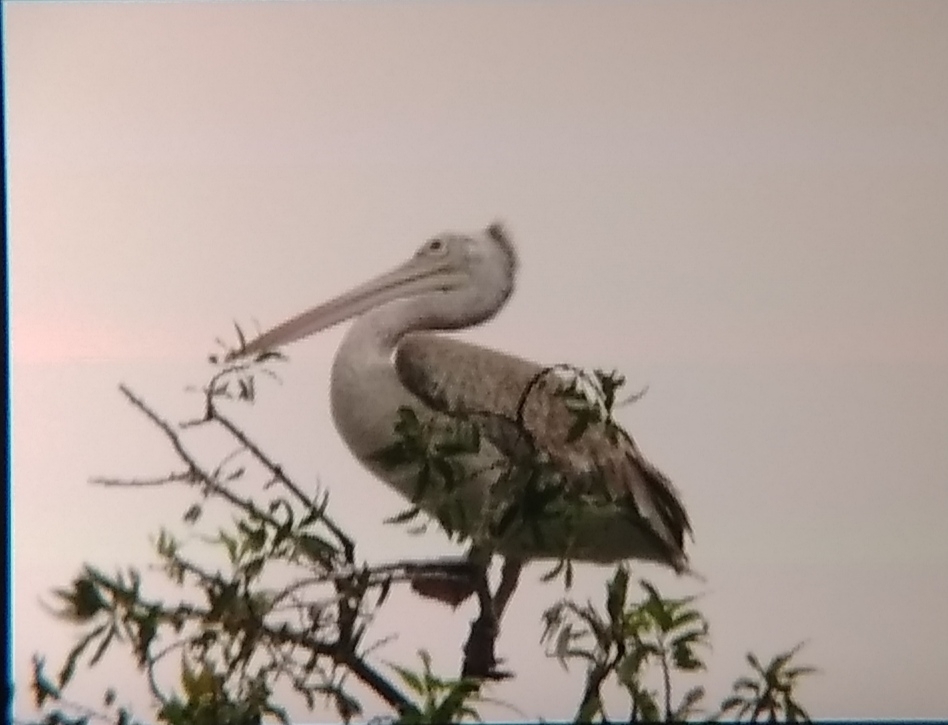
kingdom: Animalia
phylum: Chordata
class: Aves
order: Pelecaniformes
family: Pelecanidae
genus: Pelecanus
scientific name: Pelecanus philippensis
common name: Spot-billed pelican
